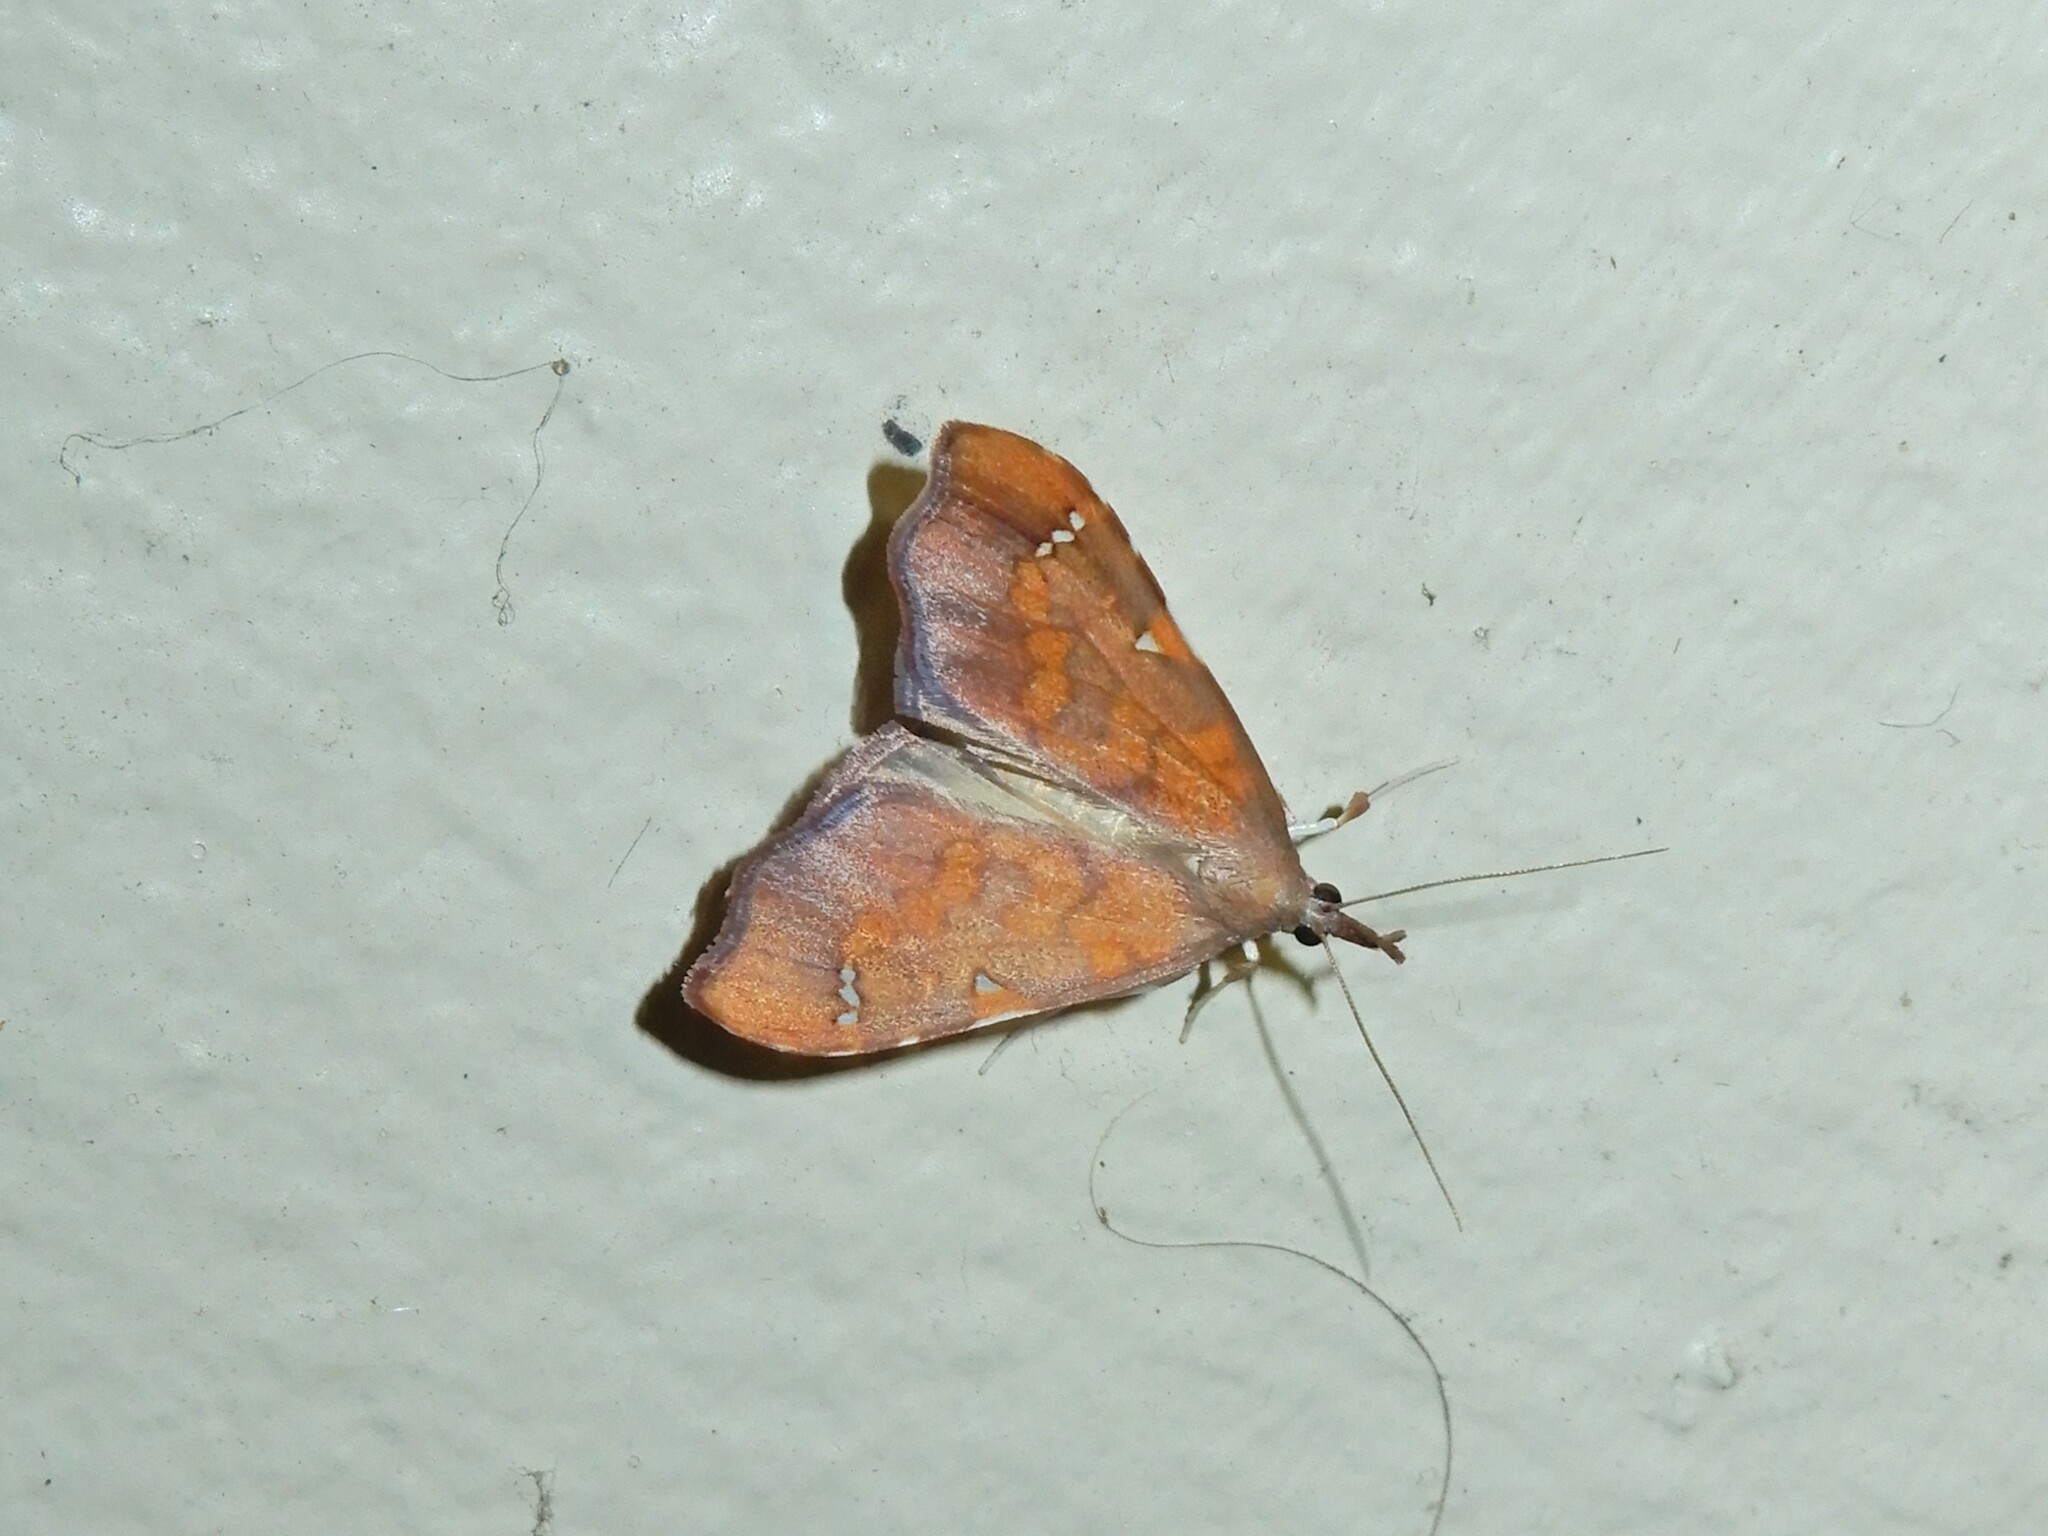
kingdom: Animalia
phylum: Arthropoda
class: Insecta
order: Lepidoptera
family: Crambidae
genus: Deana
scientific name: Deana hybreasalis
